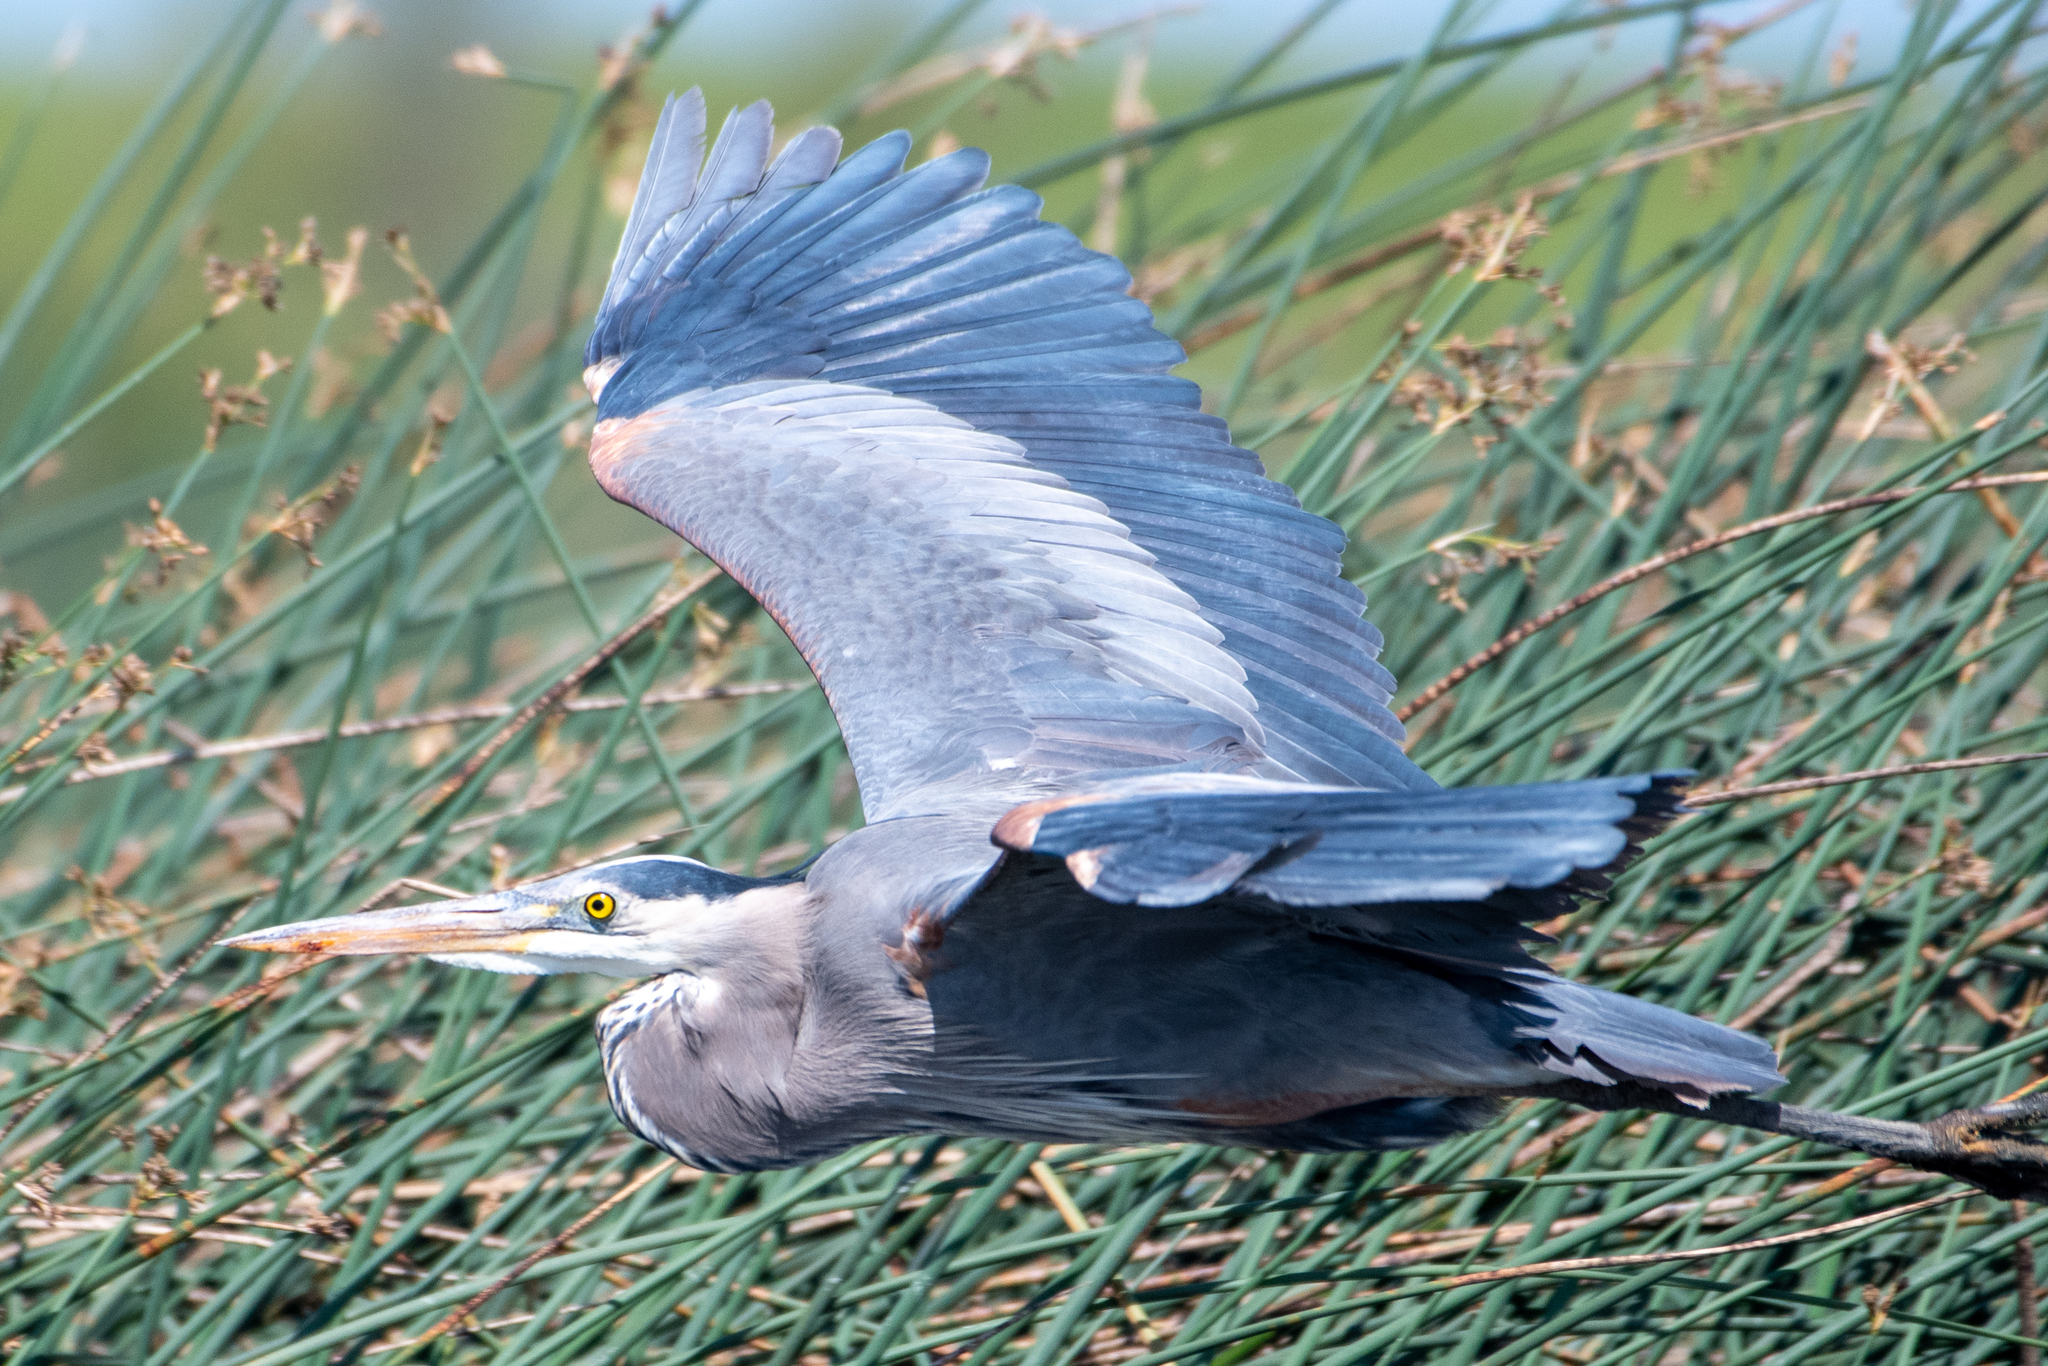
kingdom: Animalia
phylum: Chordata
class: Aves
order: Pelecaniformes
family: Ardeidae
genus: Ardea
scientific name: Ardea herodias
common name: Great blue heron
